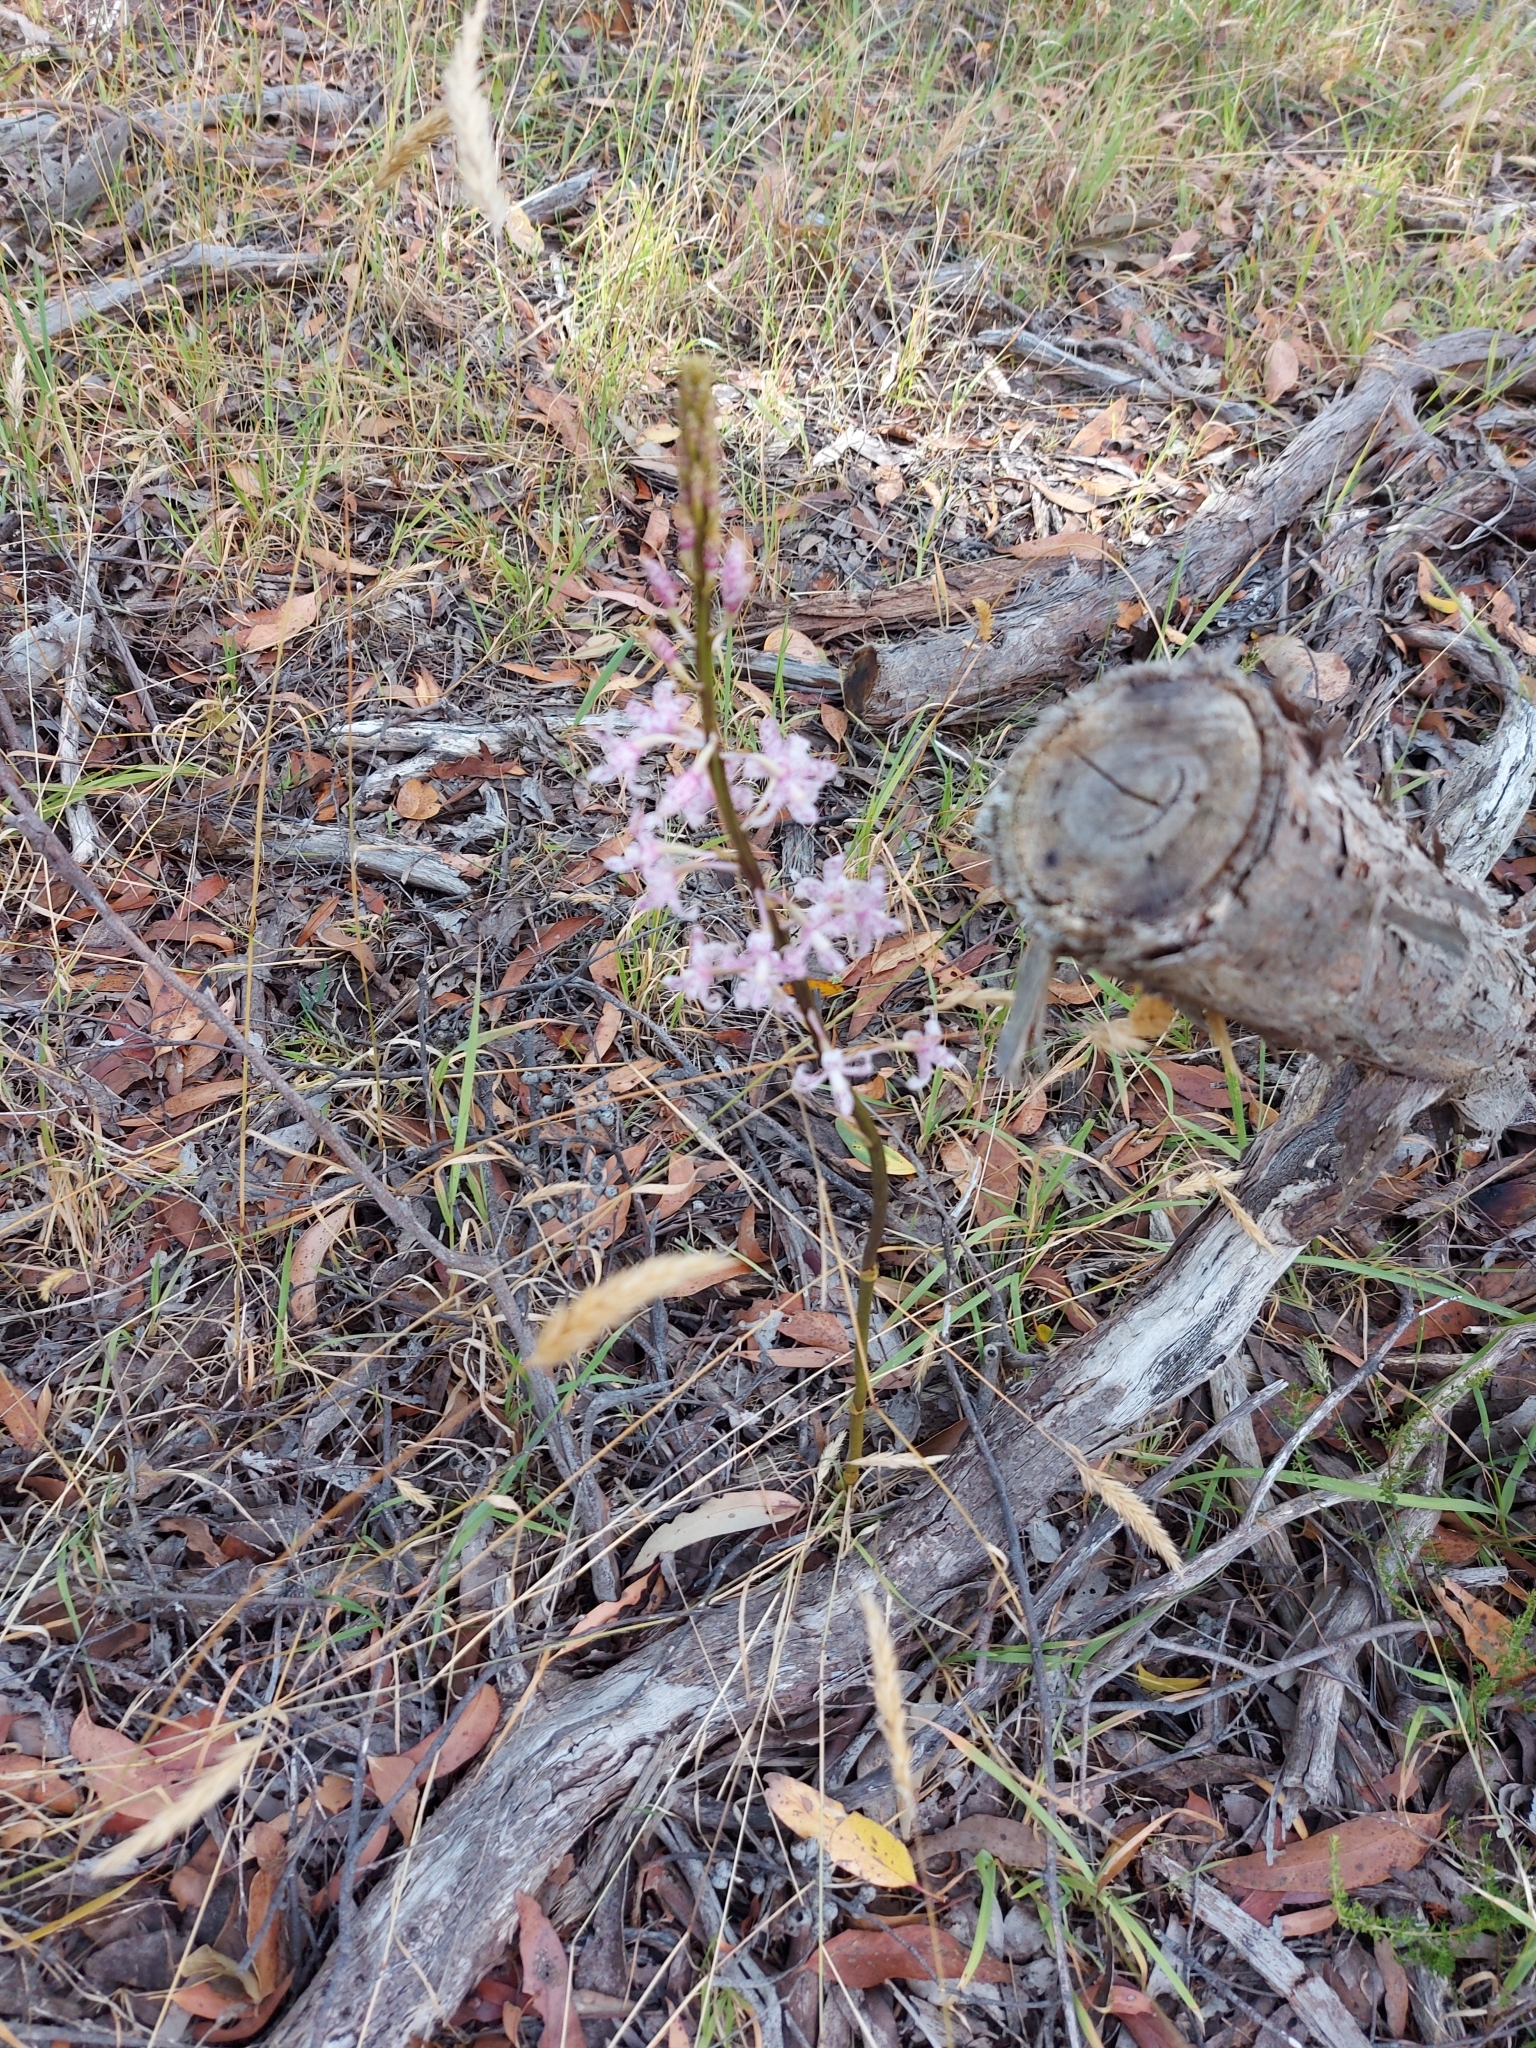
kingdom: Plantae
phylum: Tracheophyta
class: Liliopsida
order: Asparagales
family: Orchidaceae
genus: Dipodium
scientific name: Dipodium pardalinum
